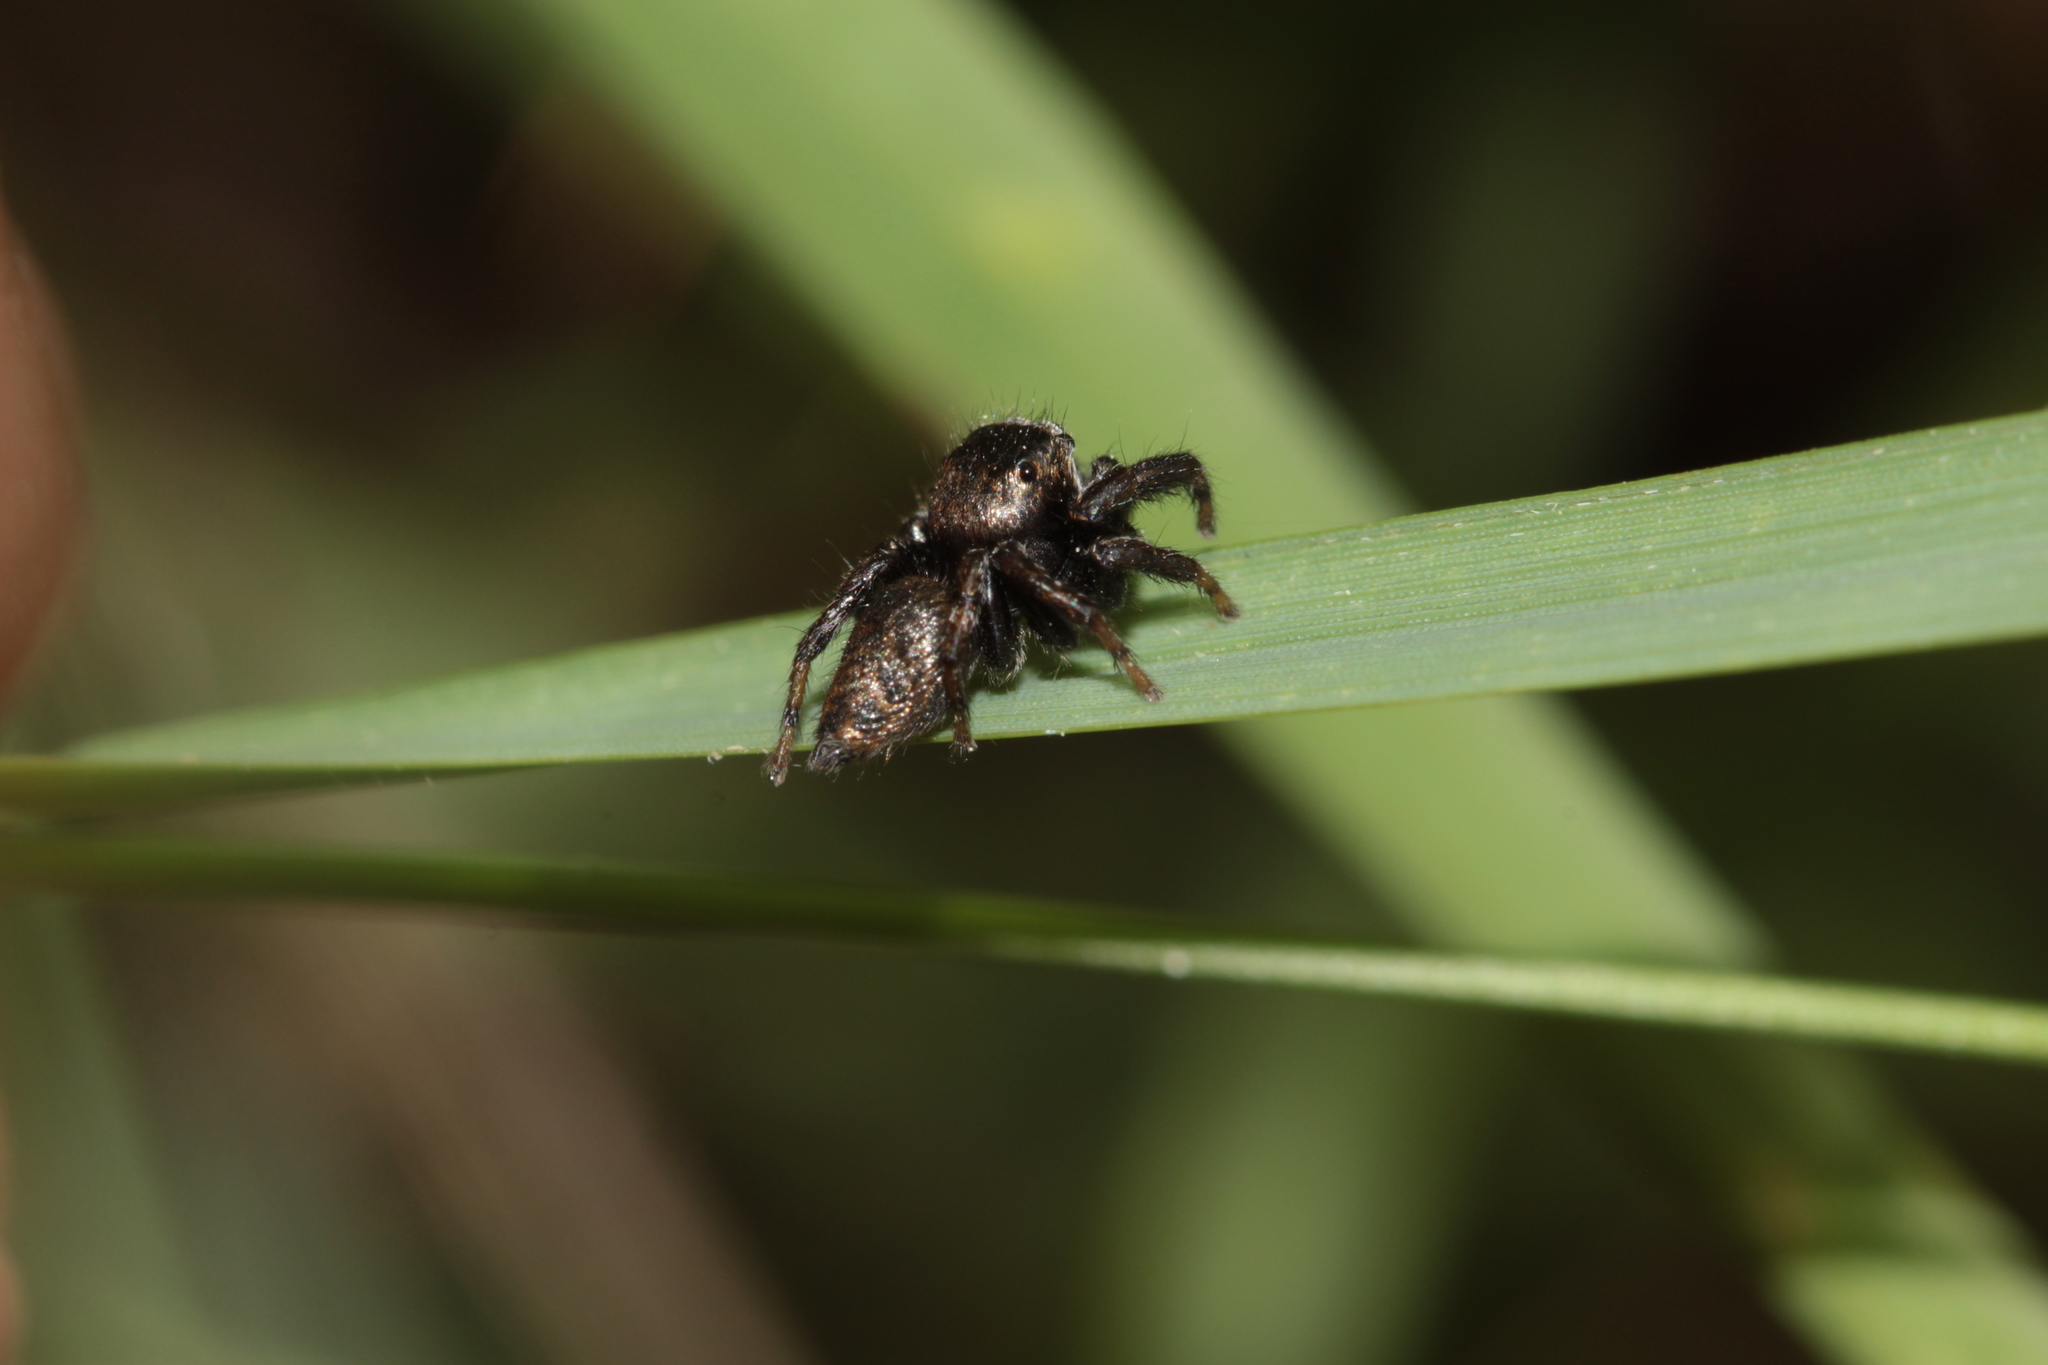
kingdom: Animalia
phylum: Arthropoda
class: Arachnida
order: Araneae
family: Salticidae
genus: Evarcha
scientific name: Evarcha arcuata
